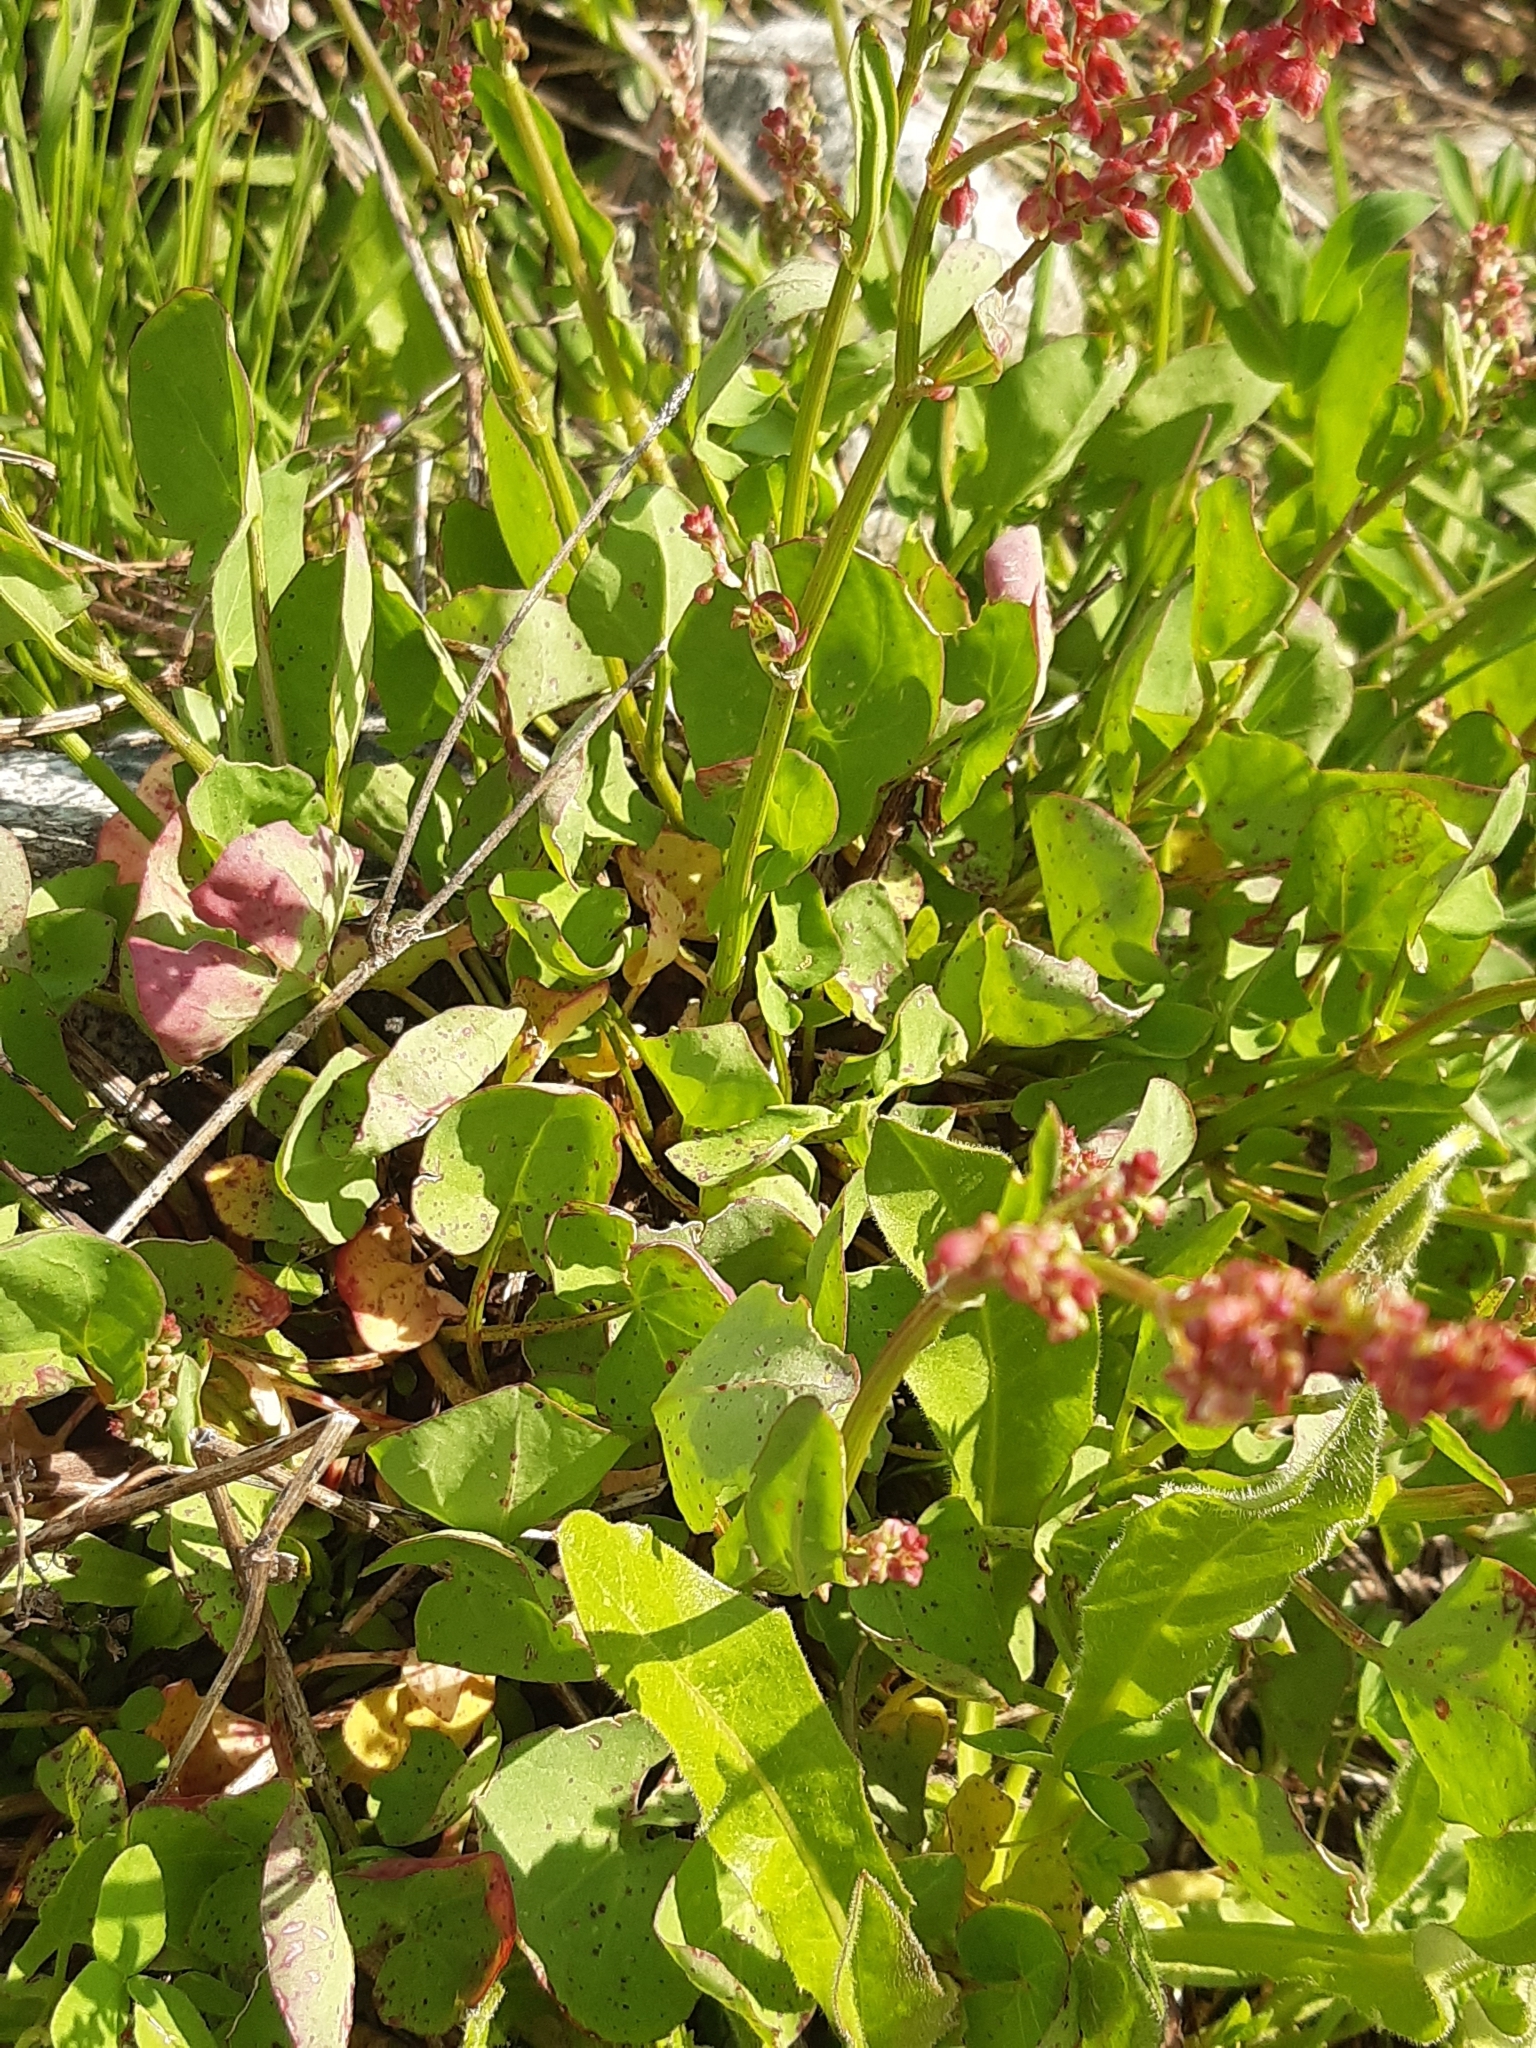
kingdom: Plantae
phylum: Tracheophyta
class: Magnoliopsida
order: Caryophyllales
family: Polygonaceae
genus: Rumex
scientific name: Rumex scutatus
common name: French sorrel
